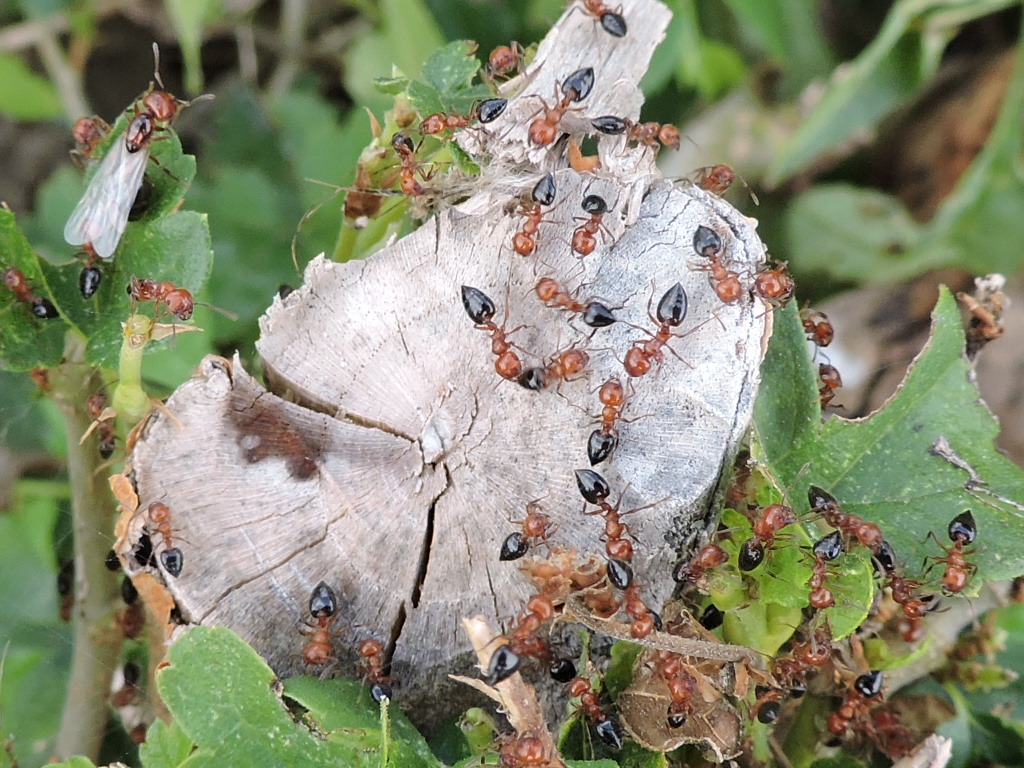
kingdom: Animalia
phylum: Arthropoda
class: Insecta
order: Hymenoptera
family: Formicidae
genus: Crematogaster
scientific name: Crematogaster laeviuscula
